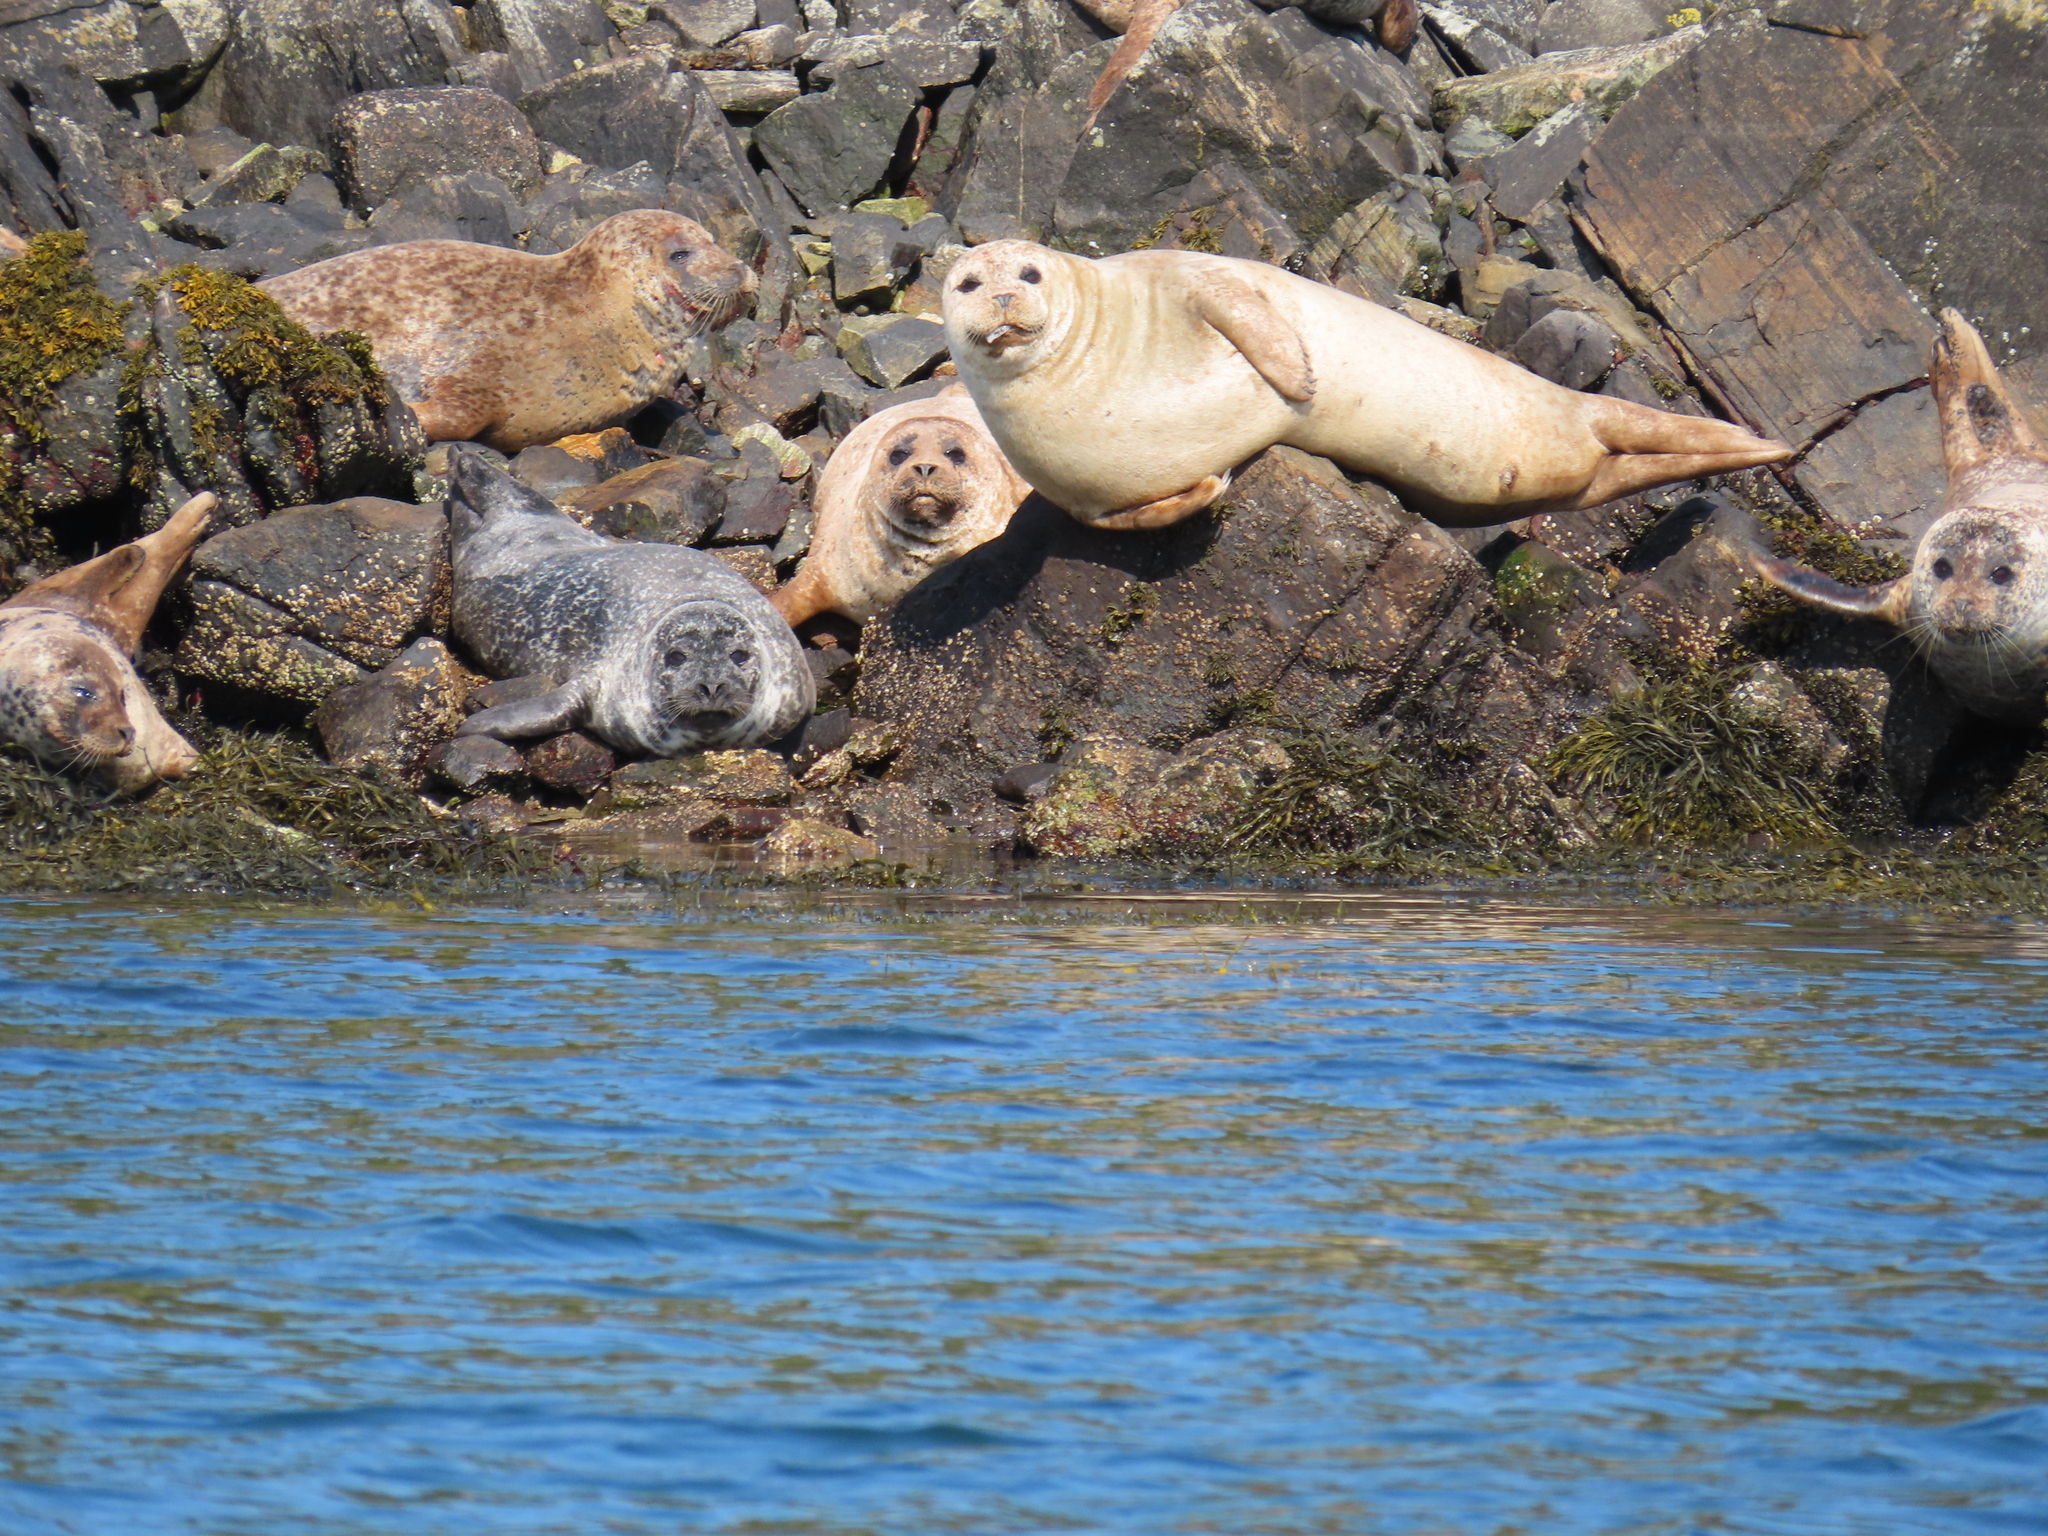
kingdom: Animalia
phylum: Chordata
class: Mammalia
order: Carnivora
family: Phocidae
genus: Phoca
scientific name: Phoca vitulina
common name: Harbor seal
